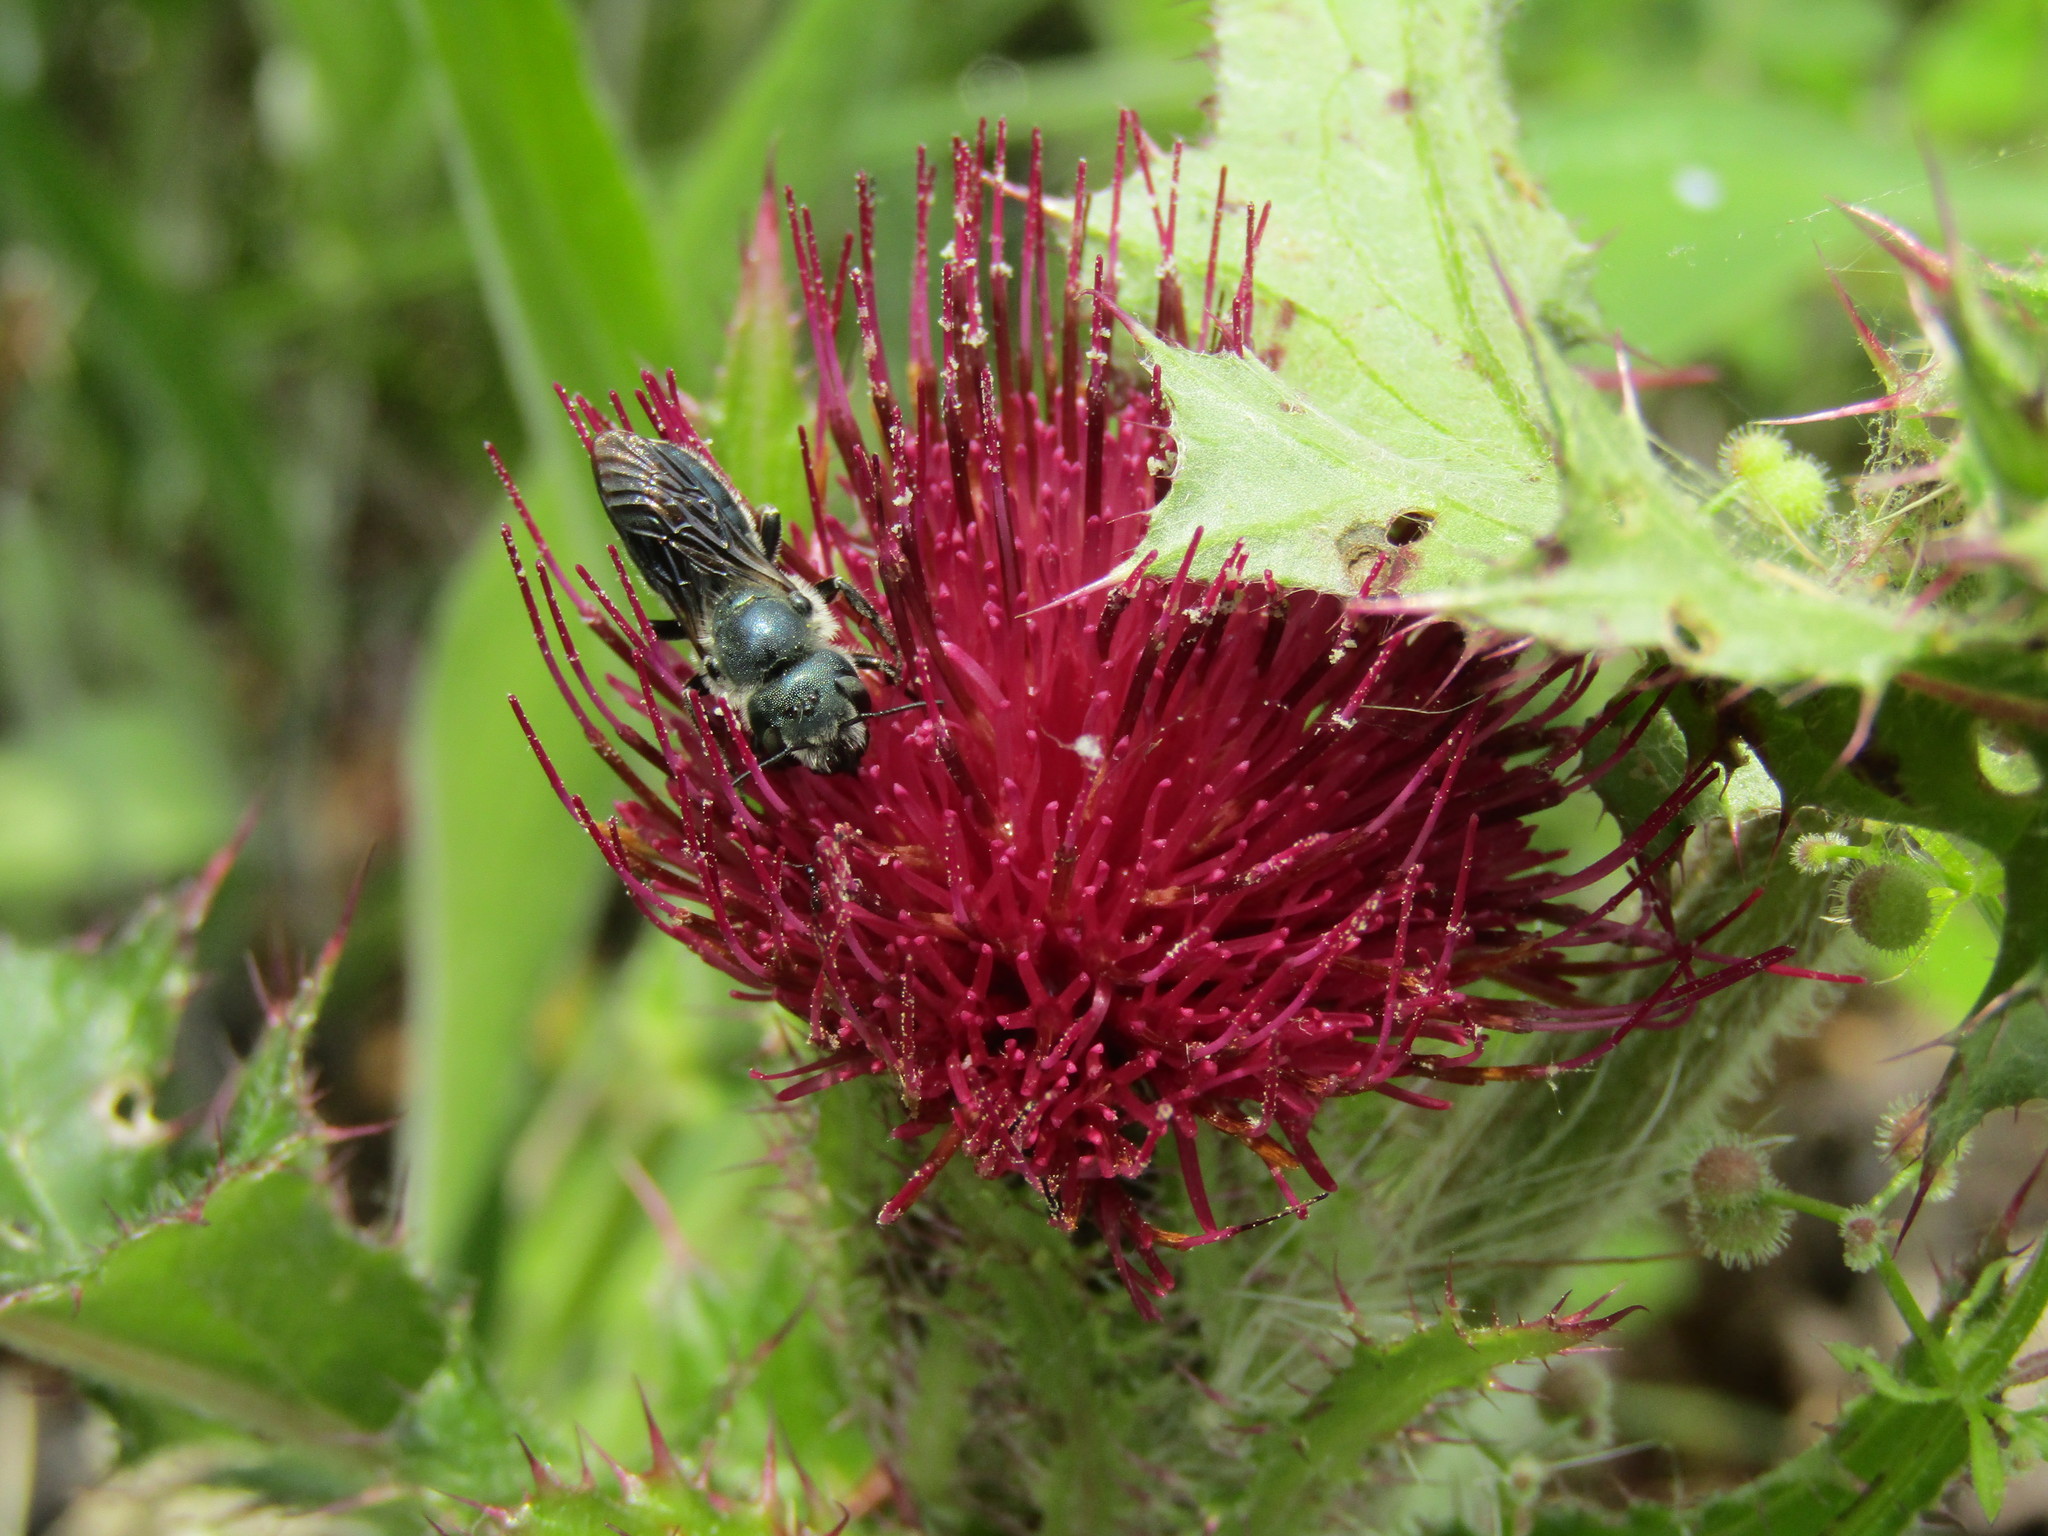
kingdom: Animalia
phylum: Arthropoda
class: Insecta
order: Hymenoptera
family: Megachilidae
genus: Osmia
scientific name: Osmia chalybea
